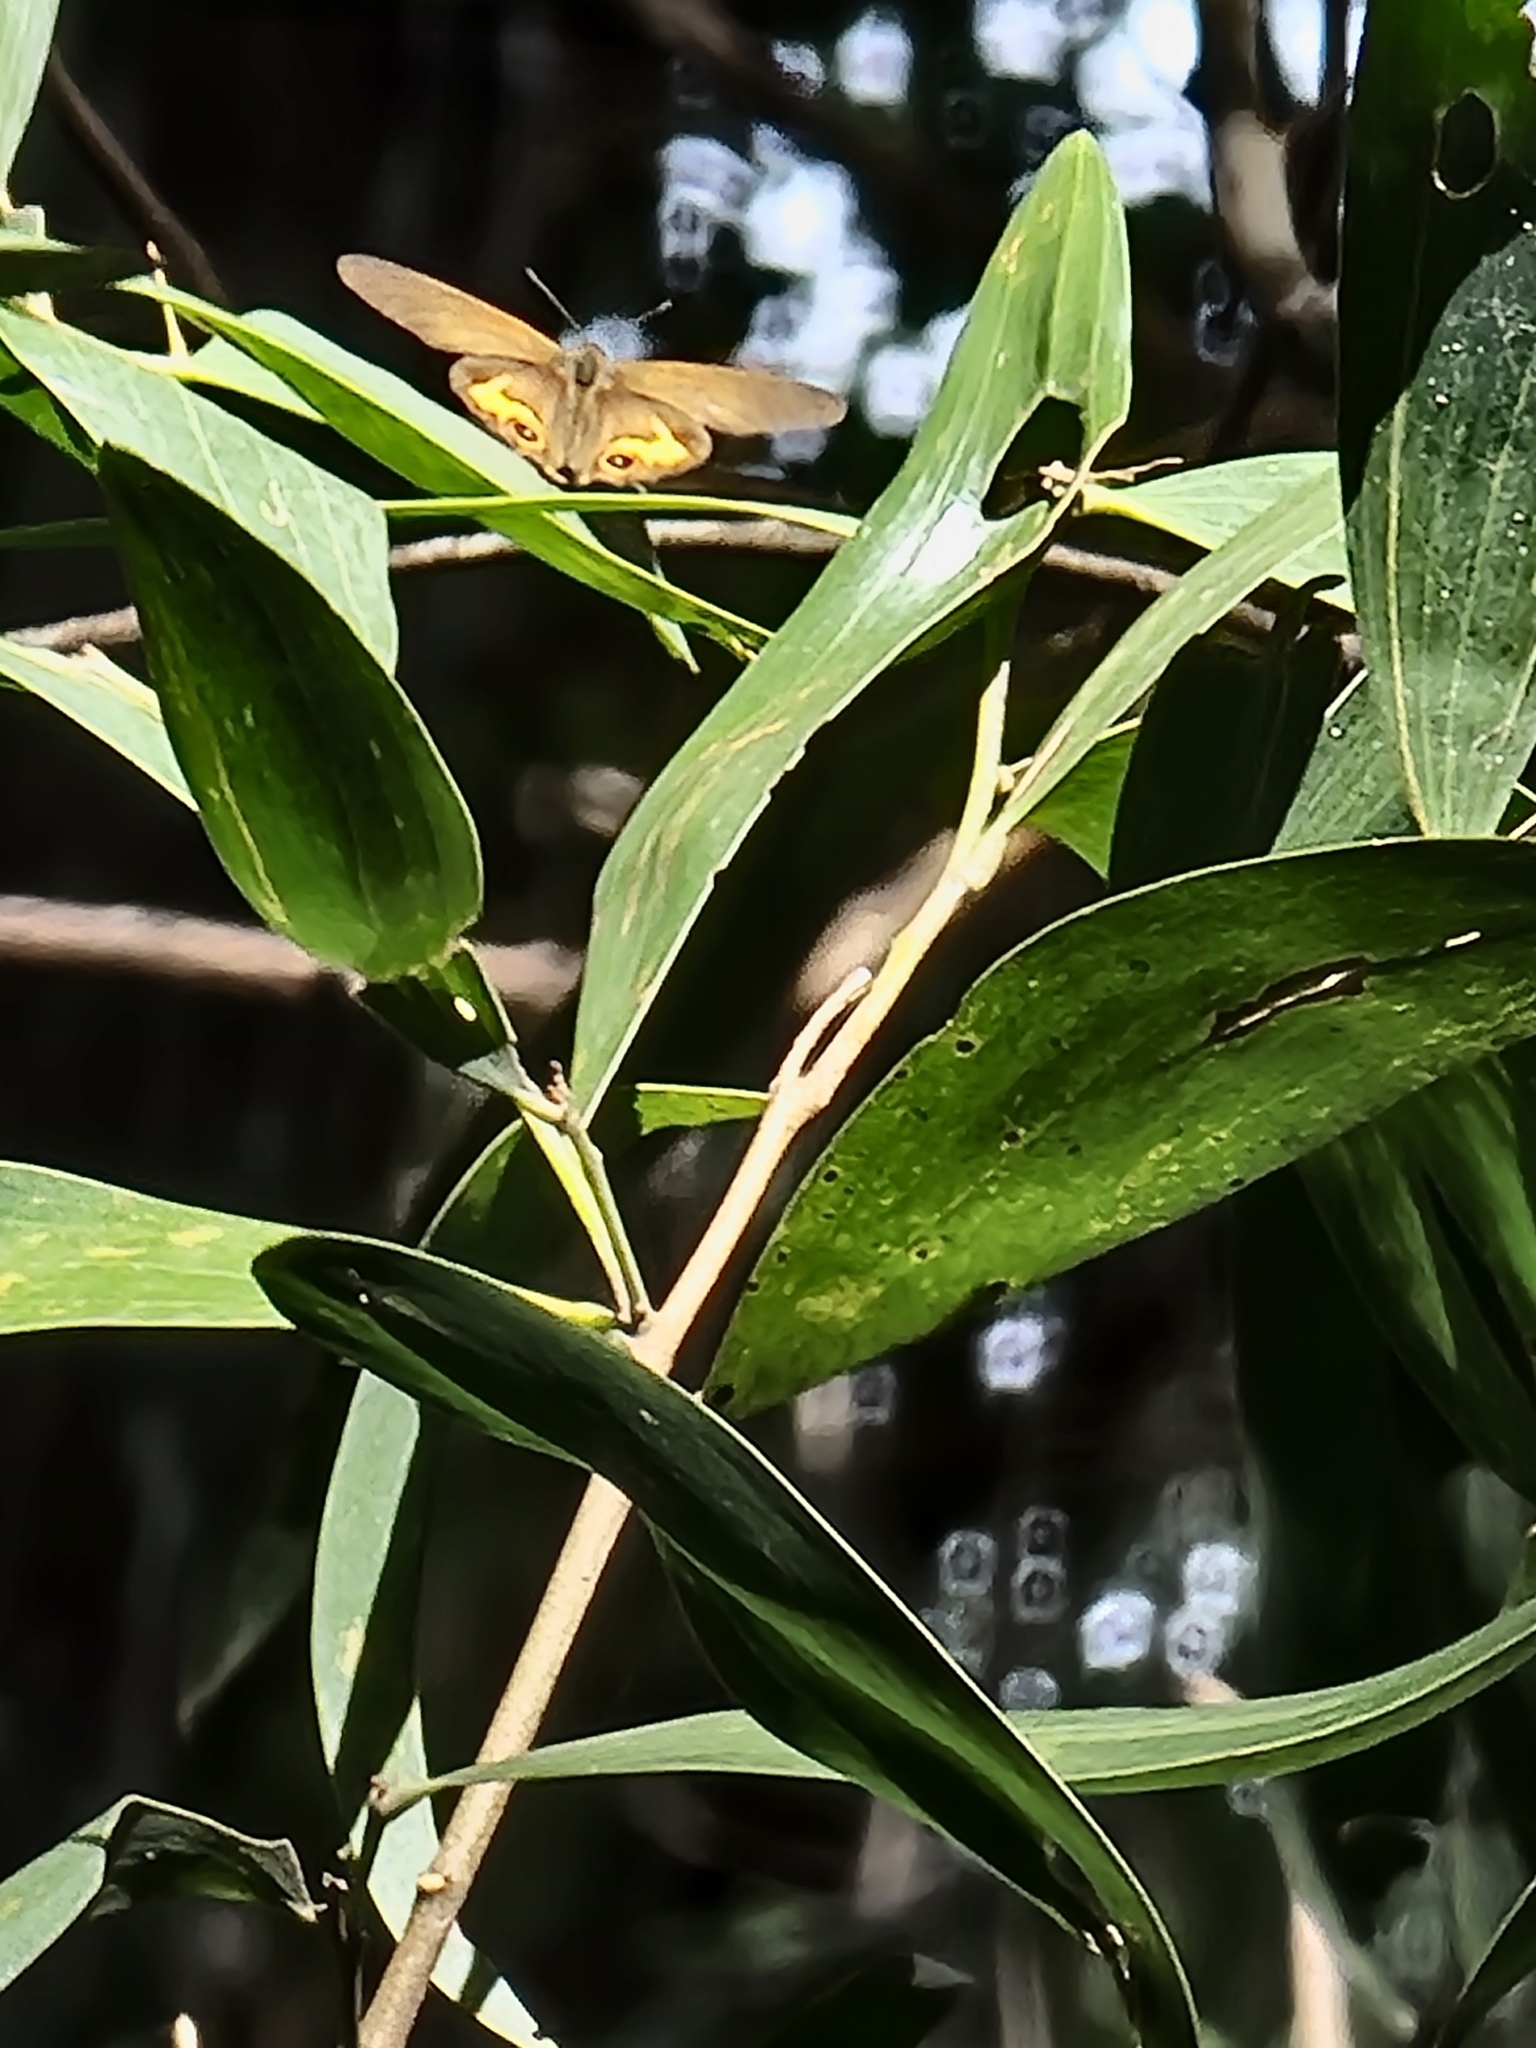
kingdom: Animalia
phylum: Arthropoda
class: Insecta
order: Lepidoptera
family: Nymphalidae
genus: Hypocysta
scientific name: Hypocysta metirius
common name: Brown ringlet
